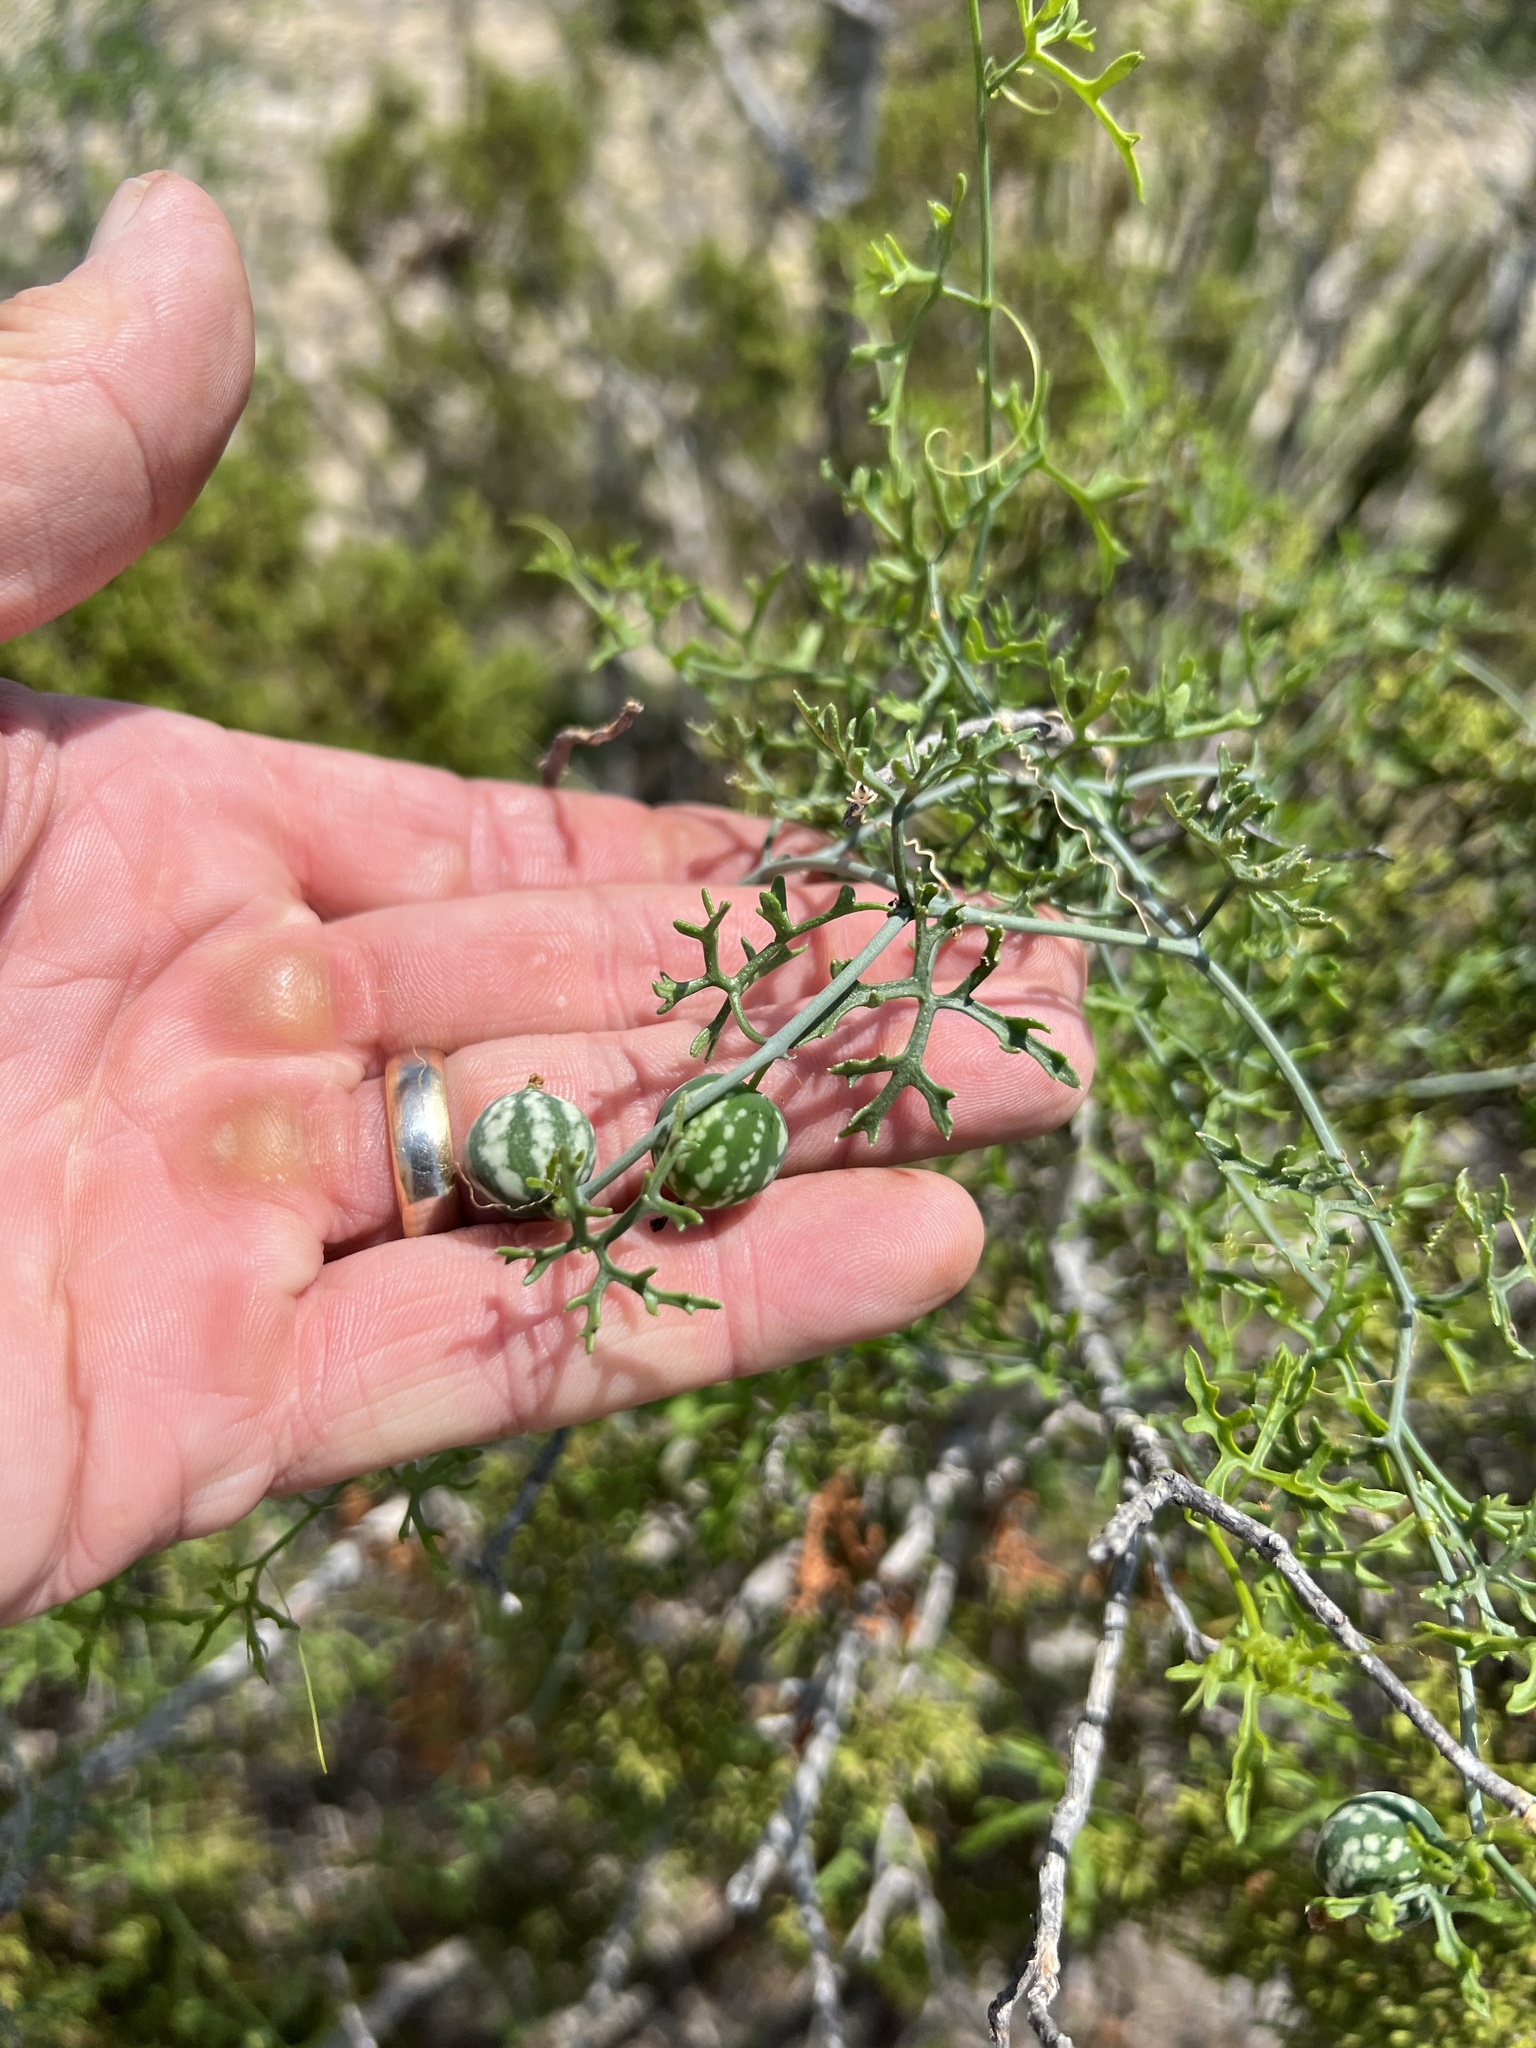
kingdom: Plantae
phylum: Tracheophyta
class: Magnoliopsida
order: Cucurbitales
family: Cucurbitaceae
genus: Ibervillea
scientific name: Ibervillea tenuisecta
